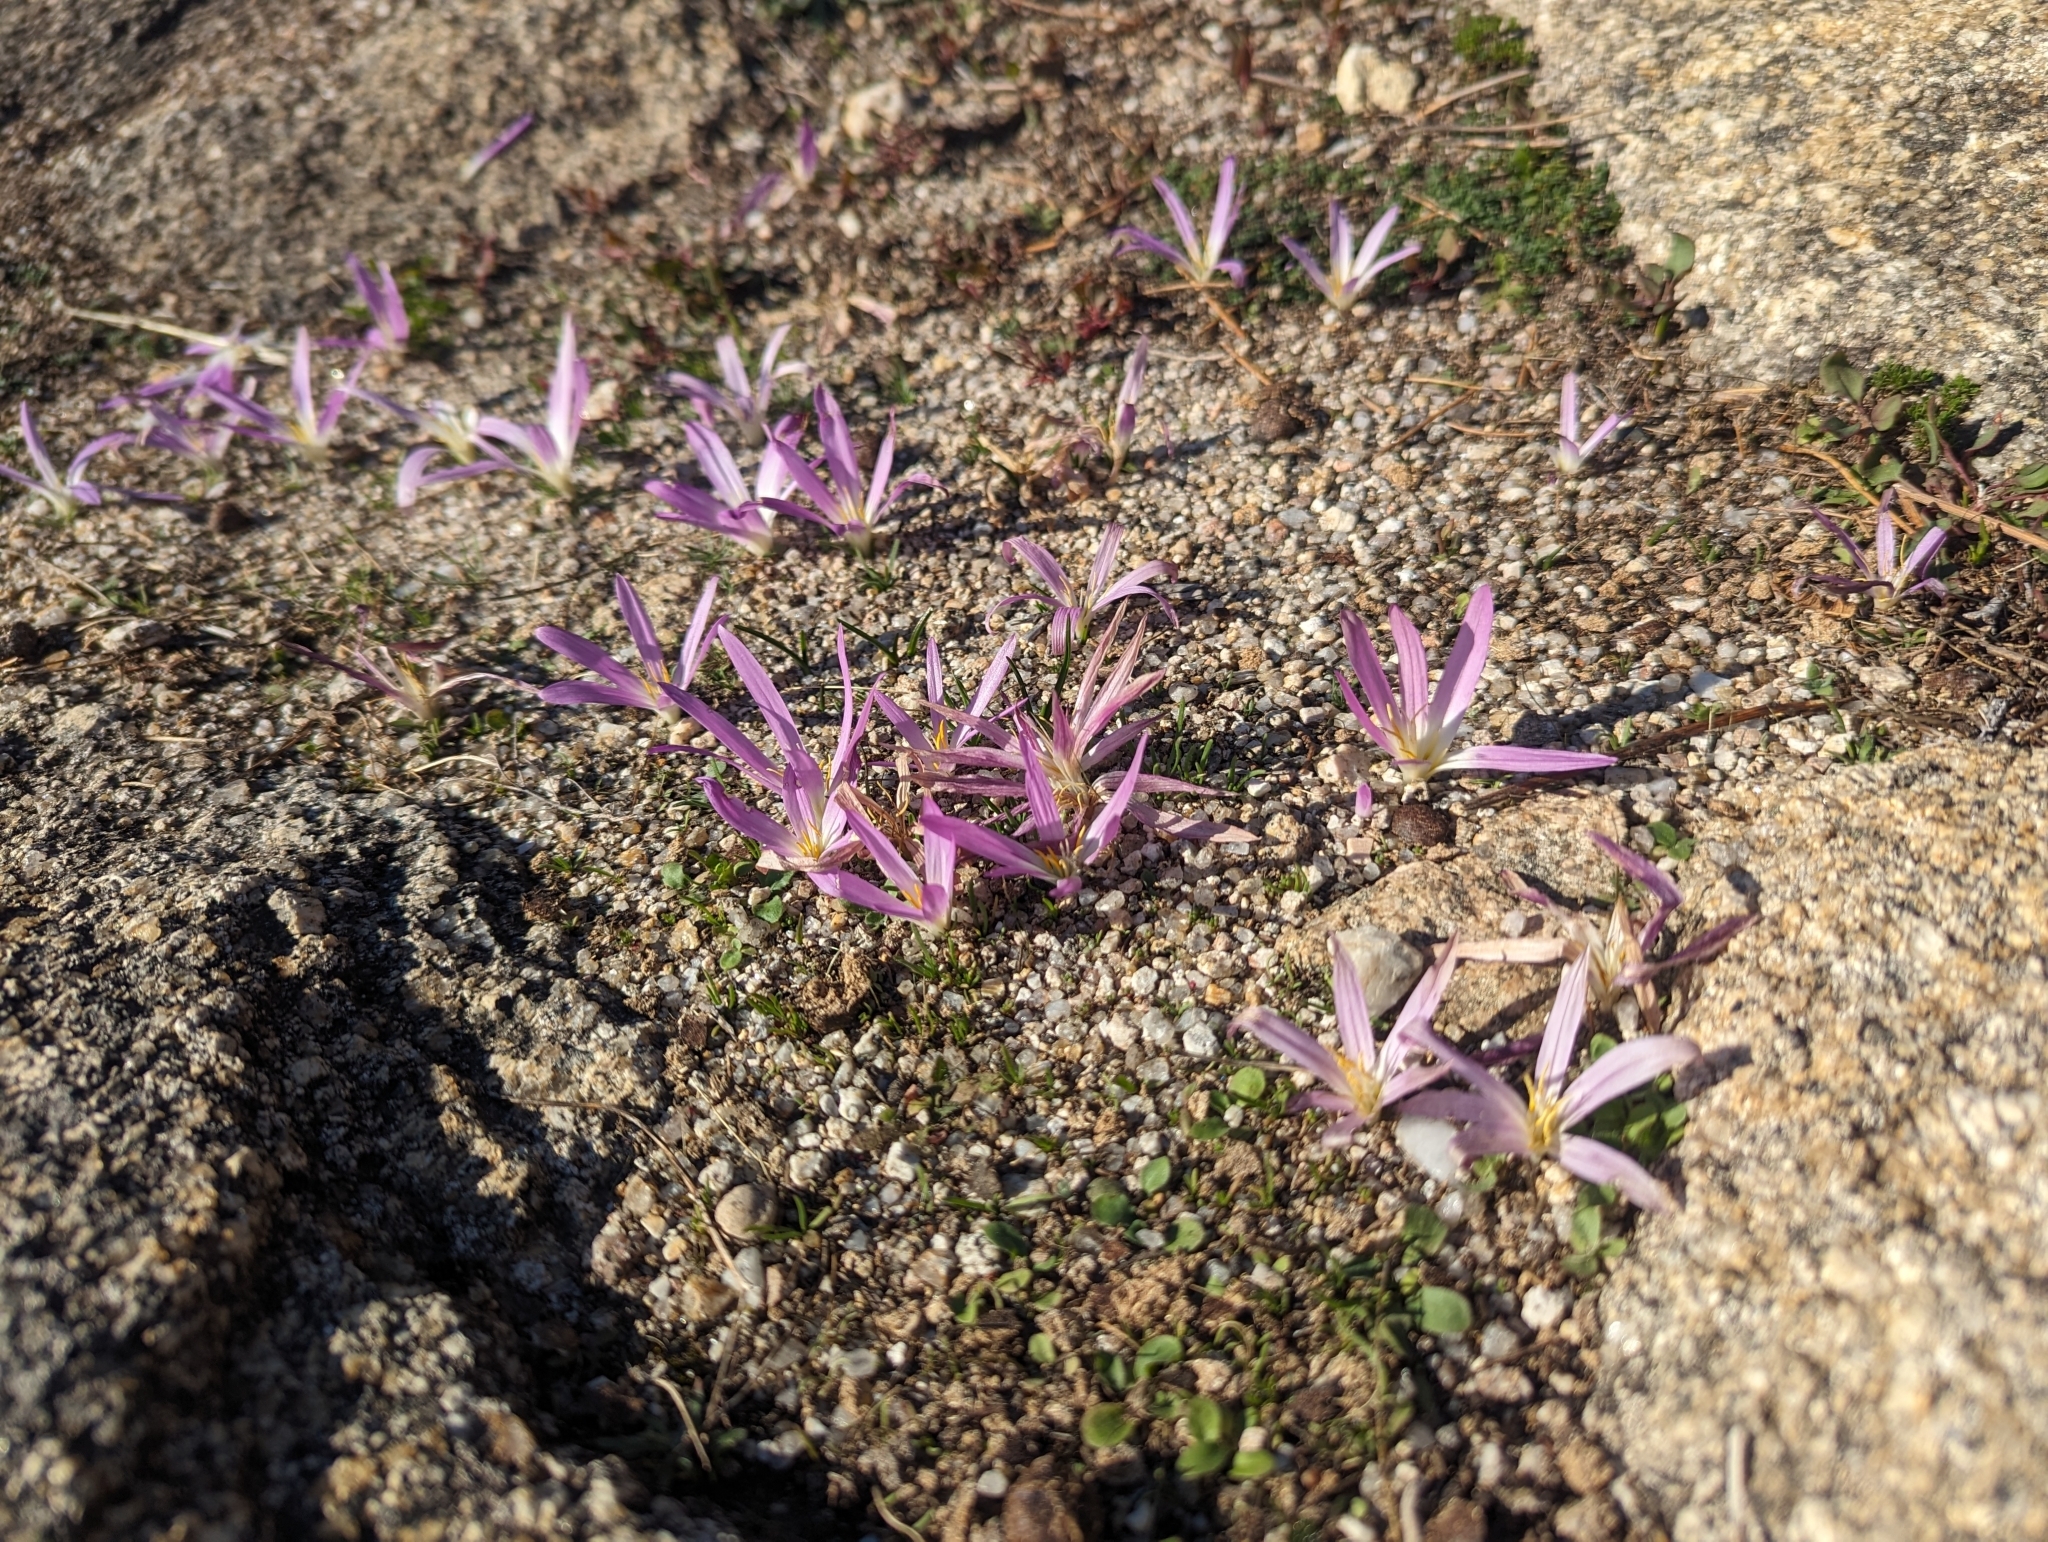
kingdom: Plantae
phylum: Tracheophyta
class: Liliopsida
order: Liliales
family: Colchicaceae
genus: Colchicum
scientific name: Colchicum montanum
